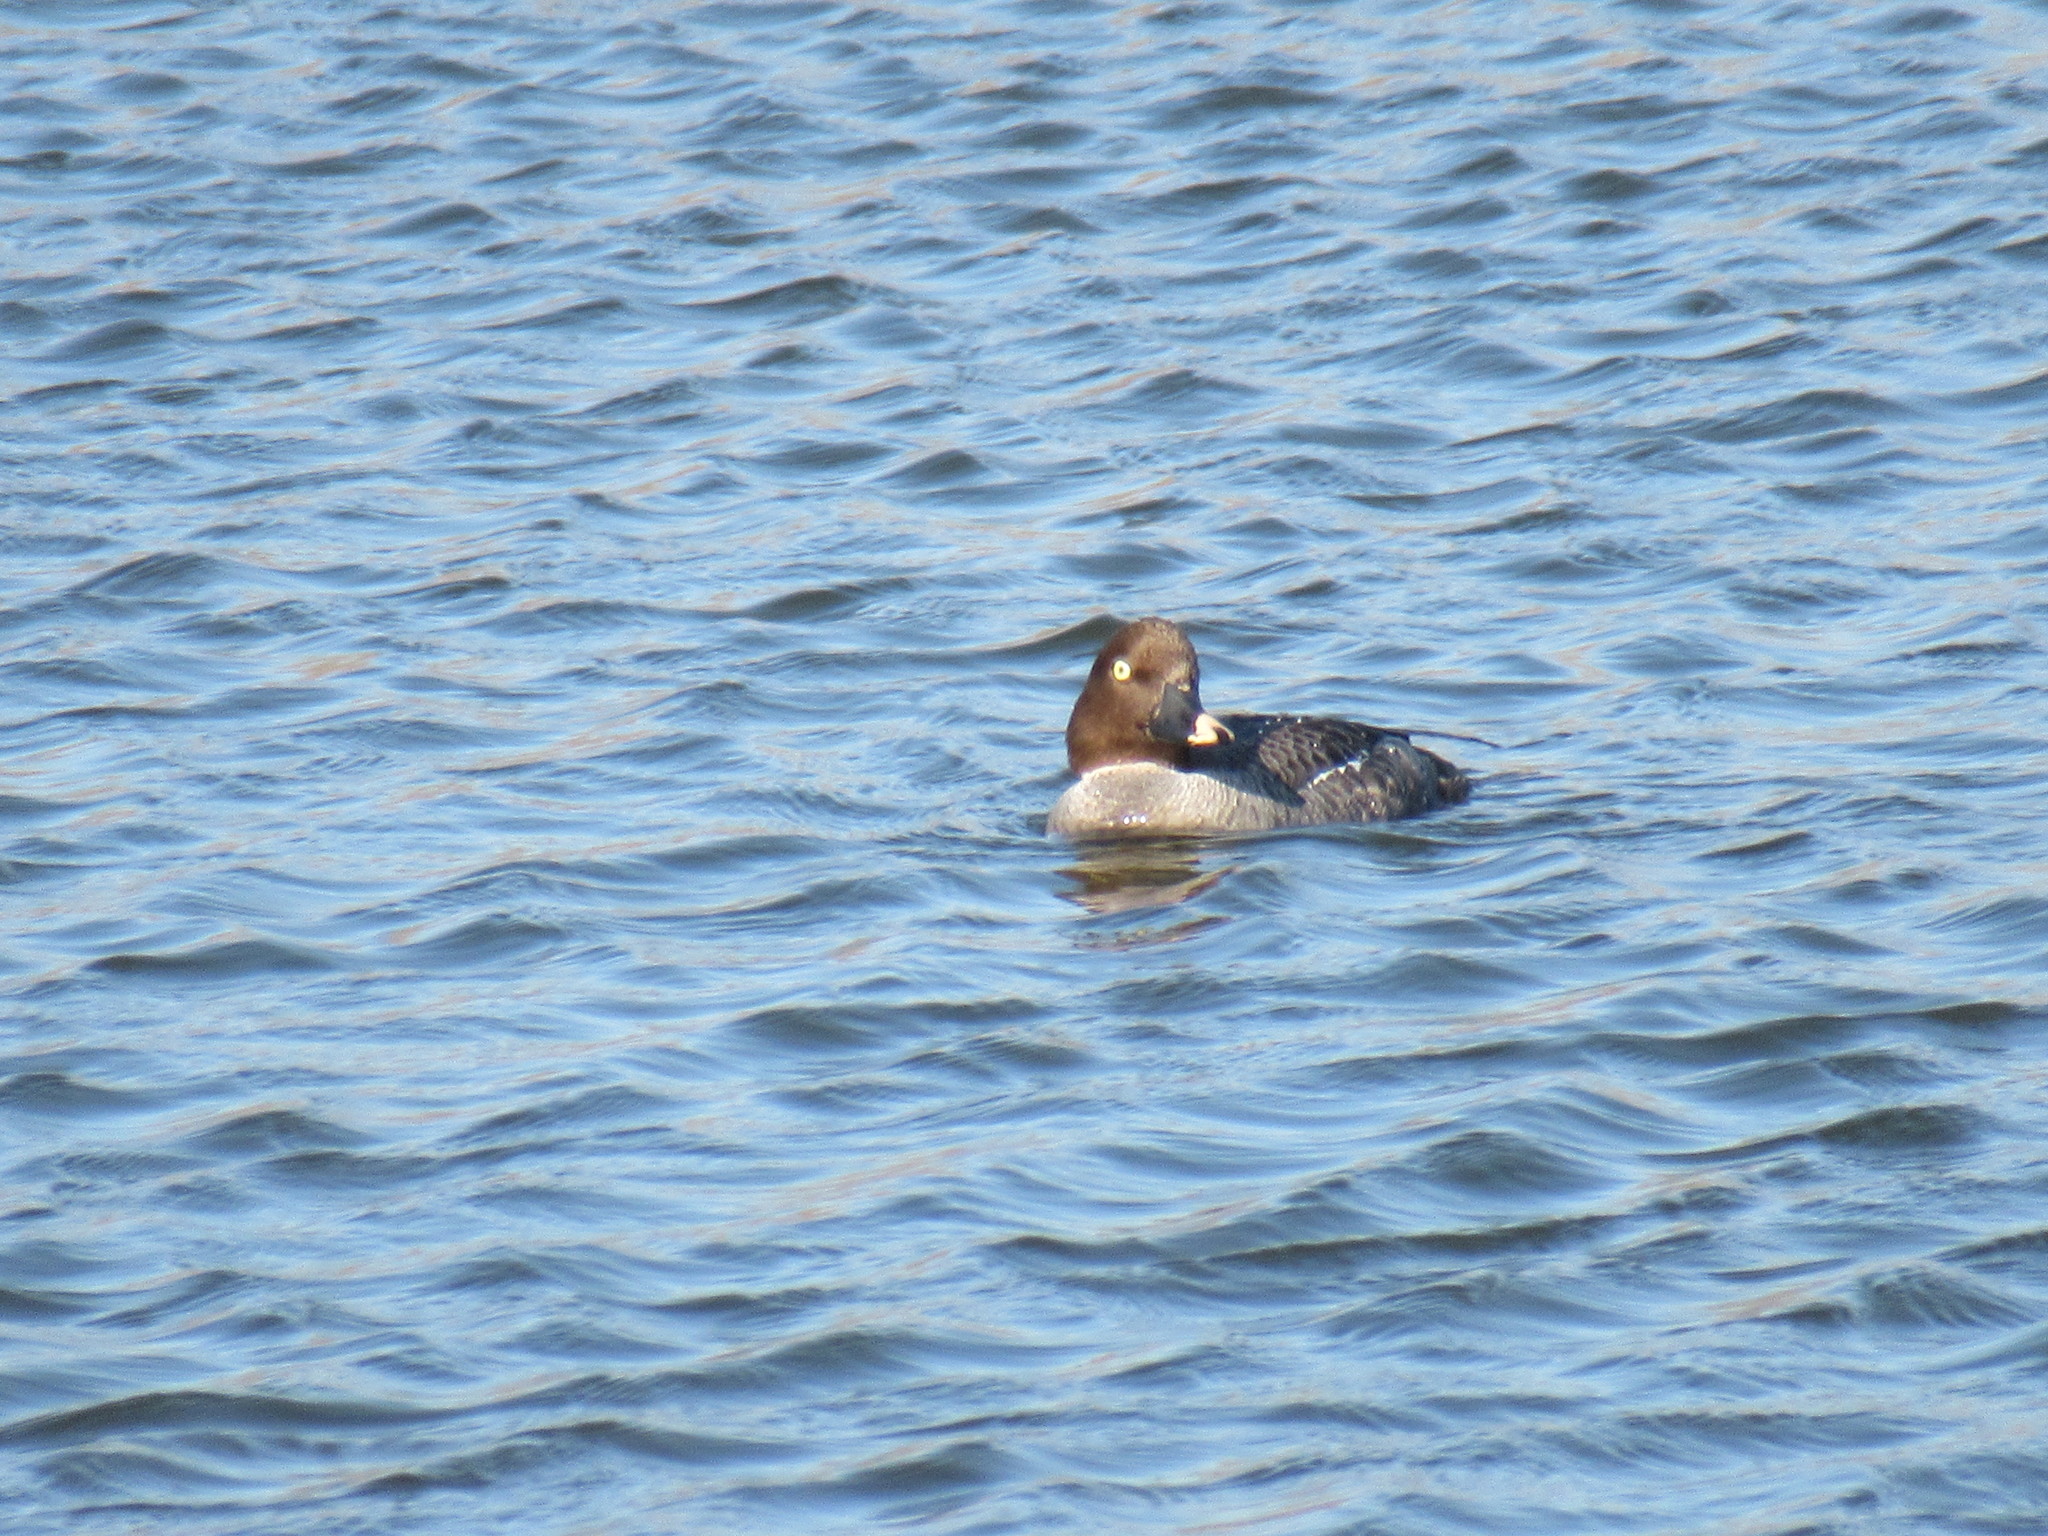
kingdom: Animalia
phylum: Chordata
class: Aves
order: Anseriformes
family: Anatidae
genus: Bucephala
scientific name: Bucephala clangula
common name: Common goldeneye
